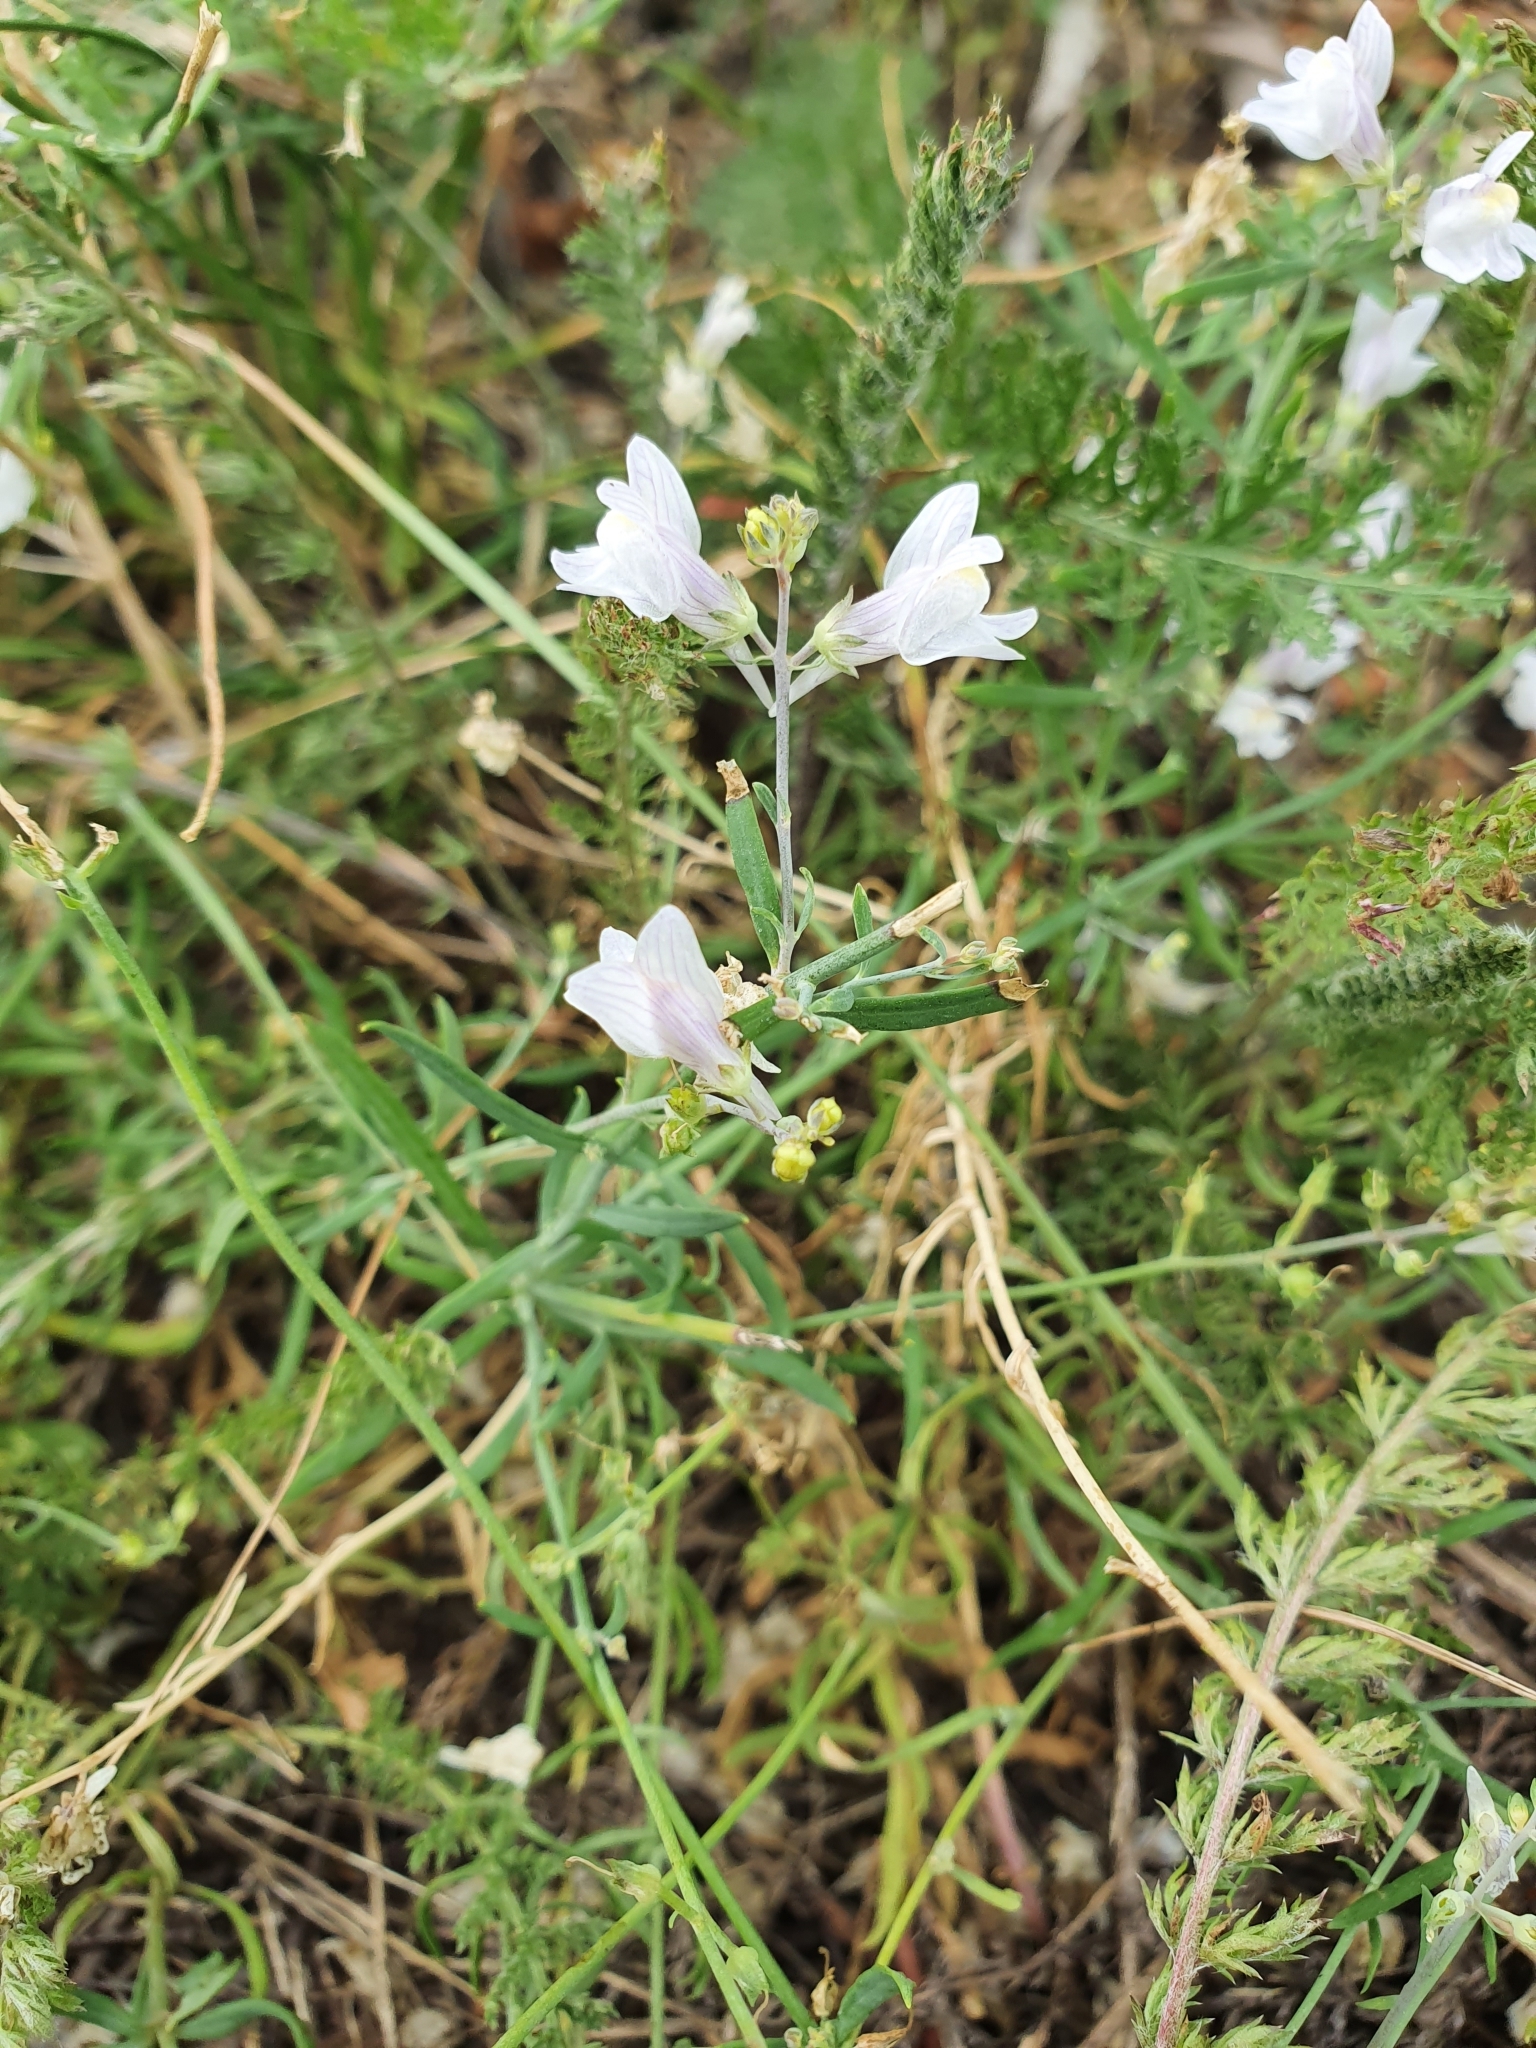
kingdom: Plantae
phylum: Tracheophyta
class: Magnoliopsida
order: Lamiales
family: Plantaginaceae
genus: Linaria
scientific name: Linaria repens
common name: Pale toadflax
